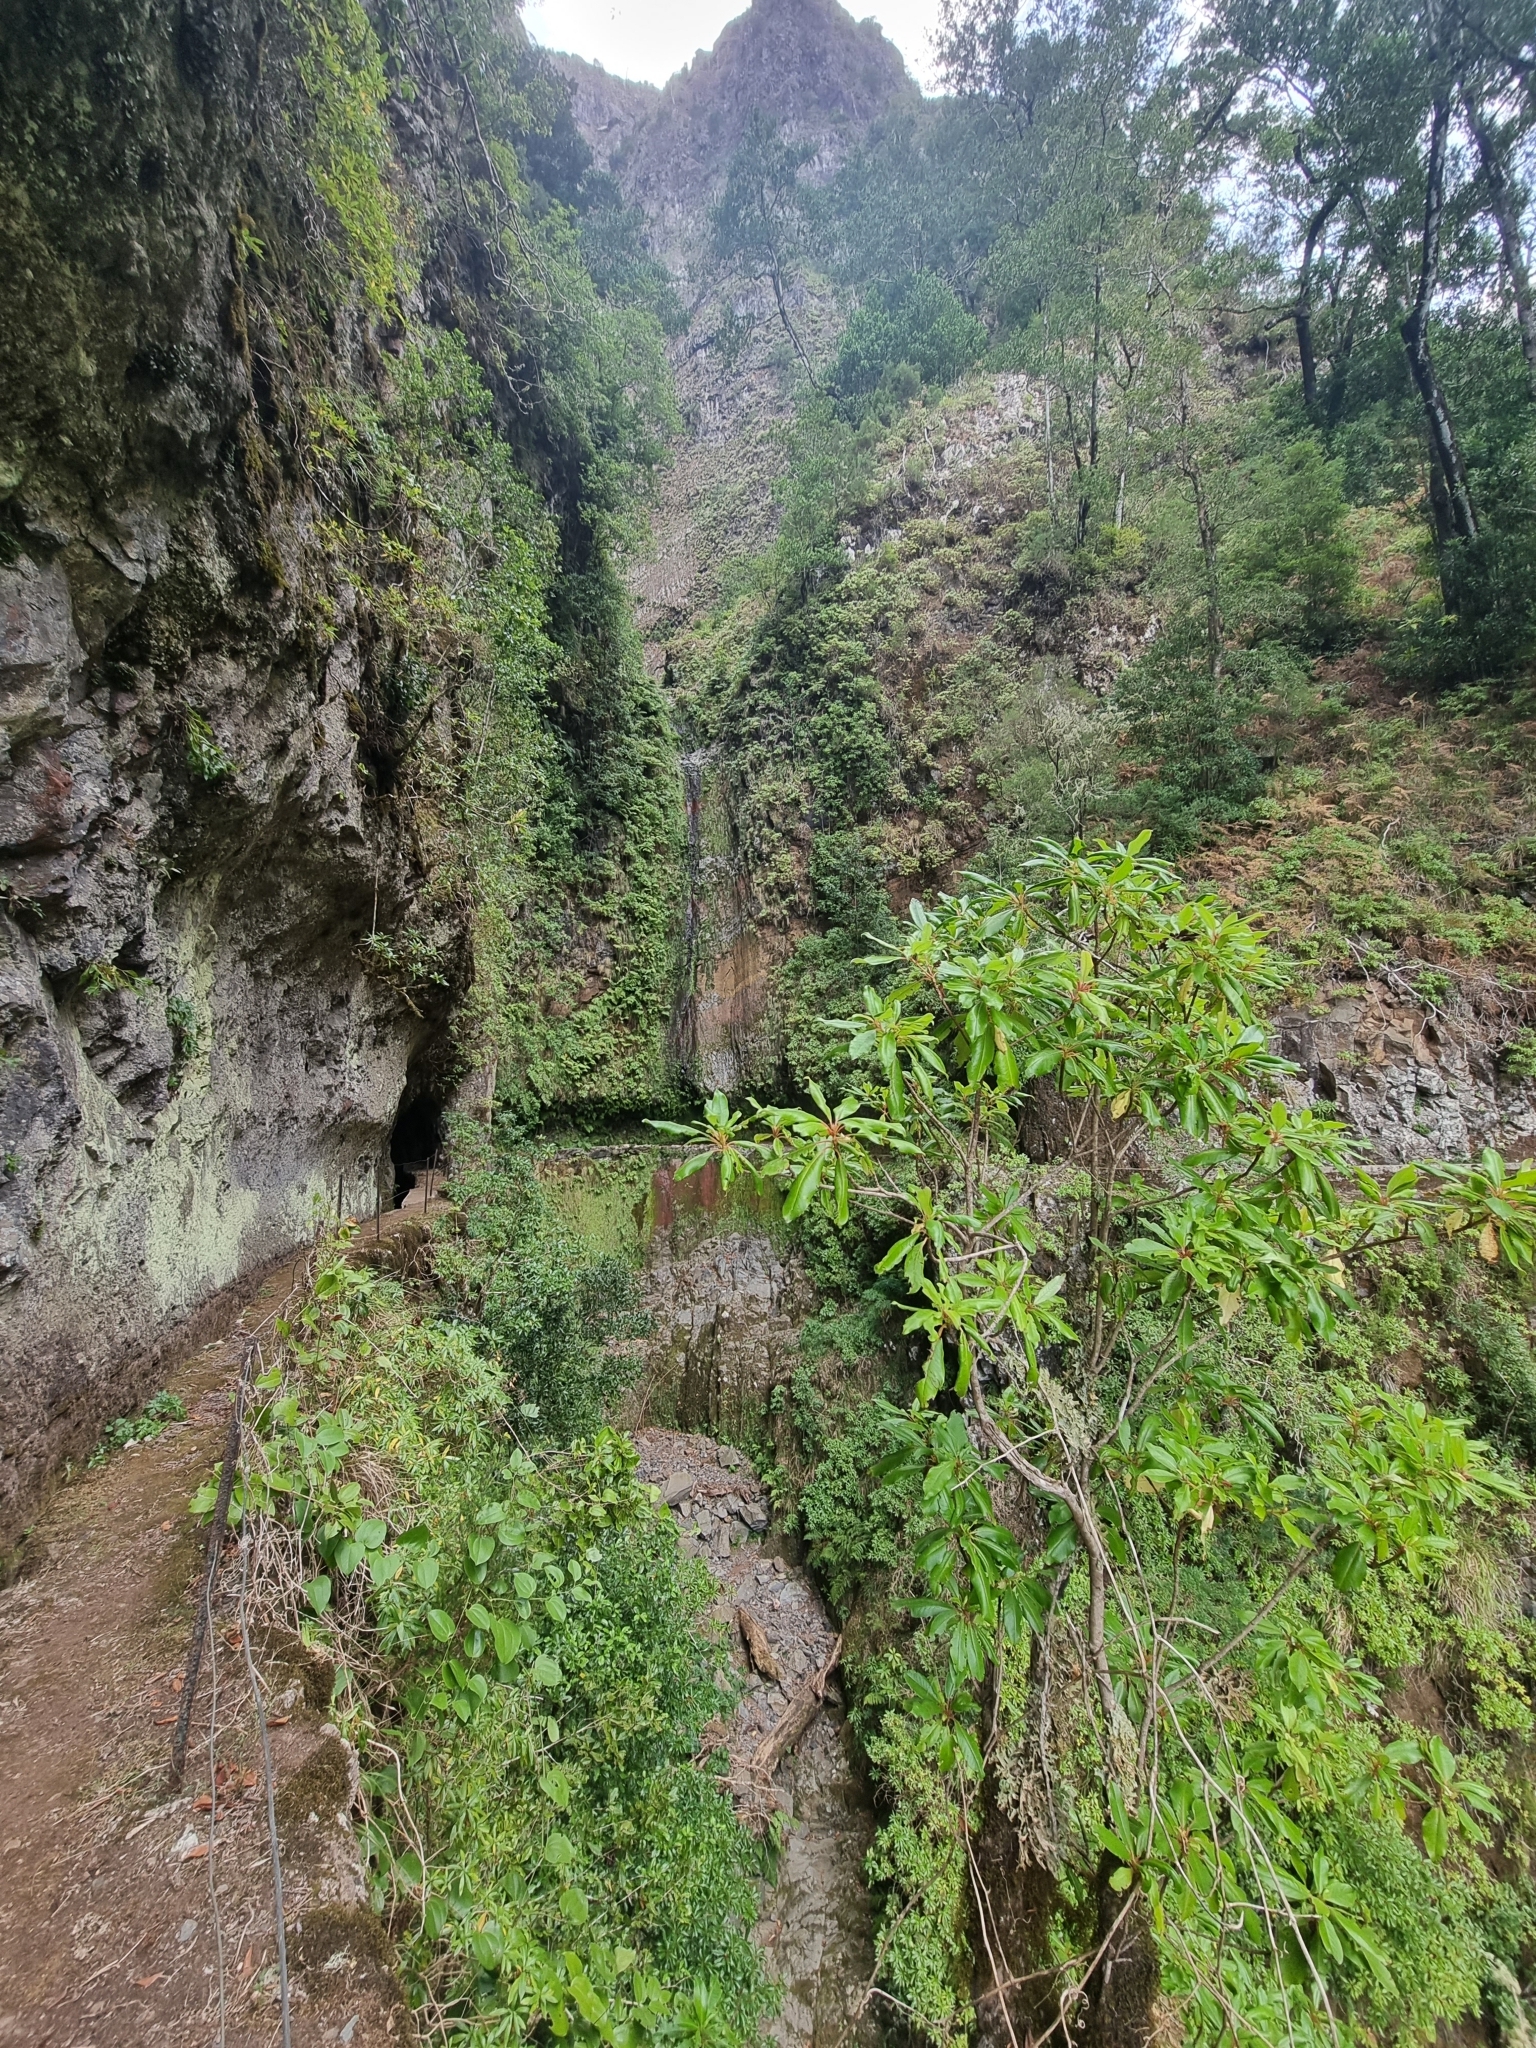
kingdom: Plantae
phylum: Tracheophyta
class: Magnoliopsida
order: Ericales
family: Clethraceae
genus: Clethra
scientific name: Clethra arborea
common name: Lily-of-the-valley-tree
